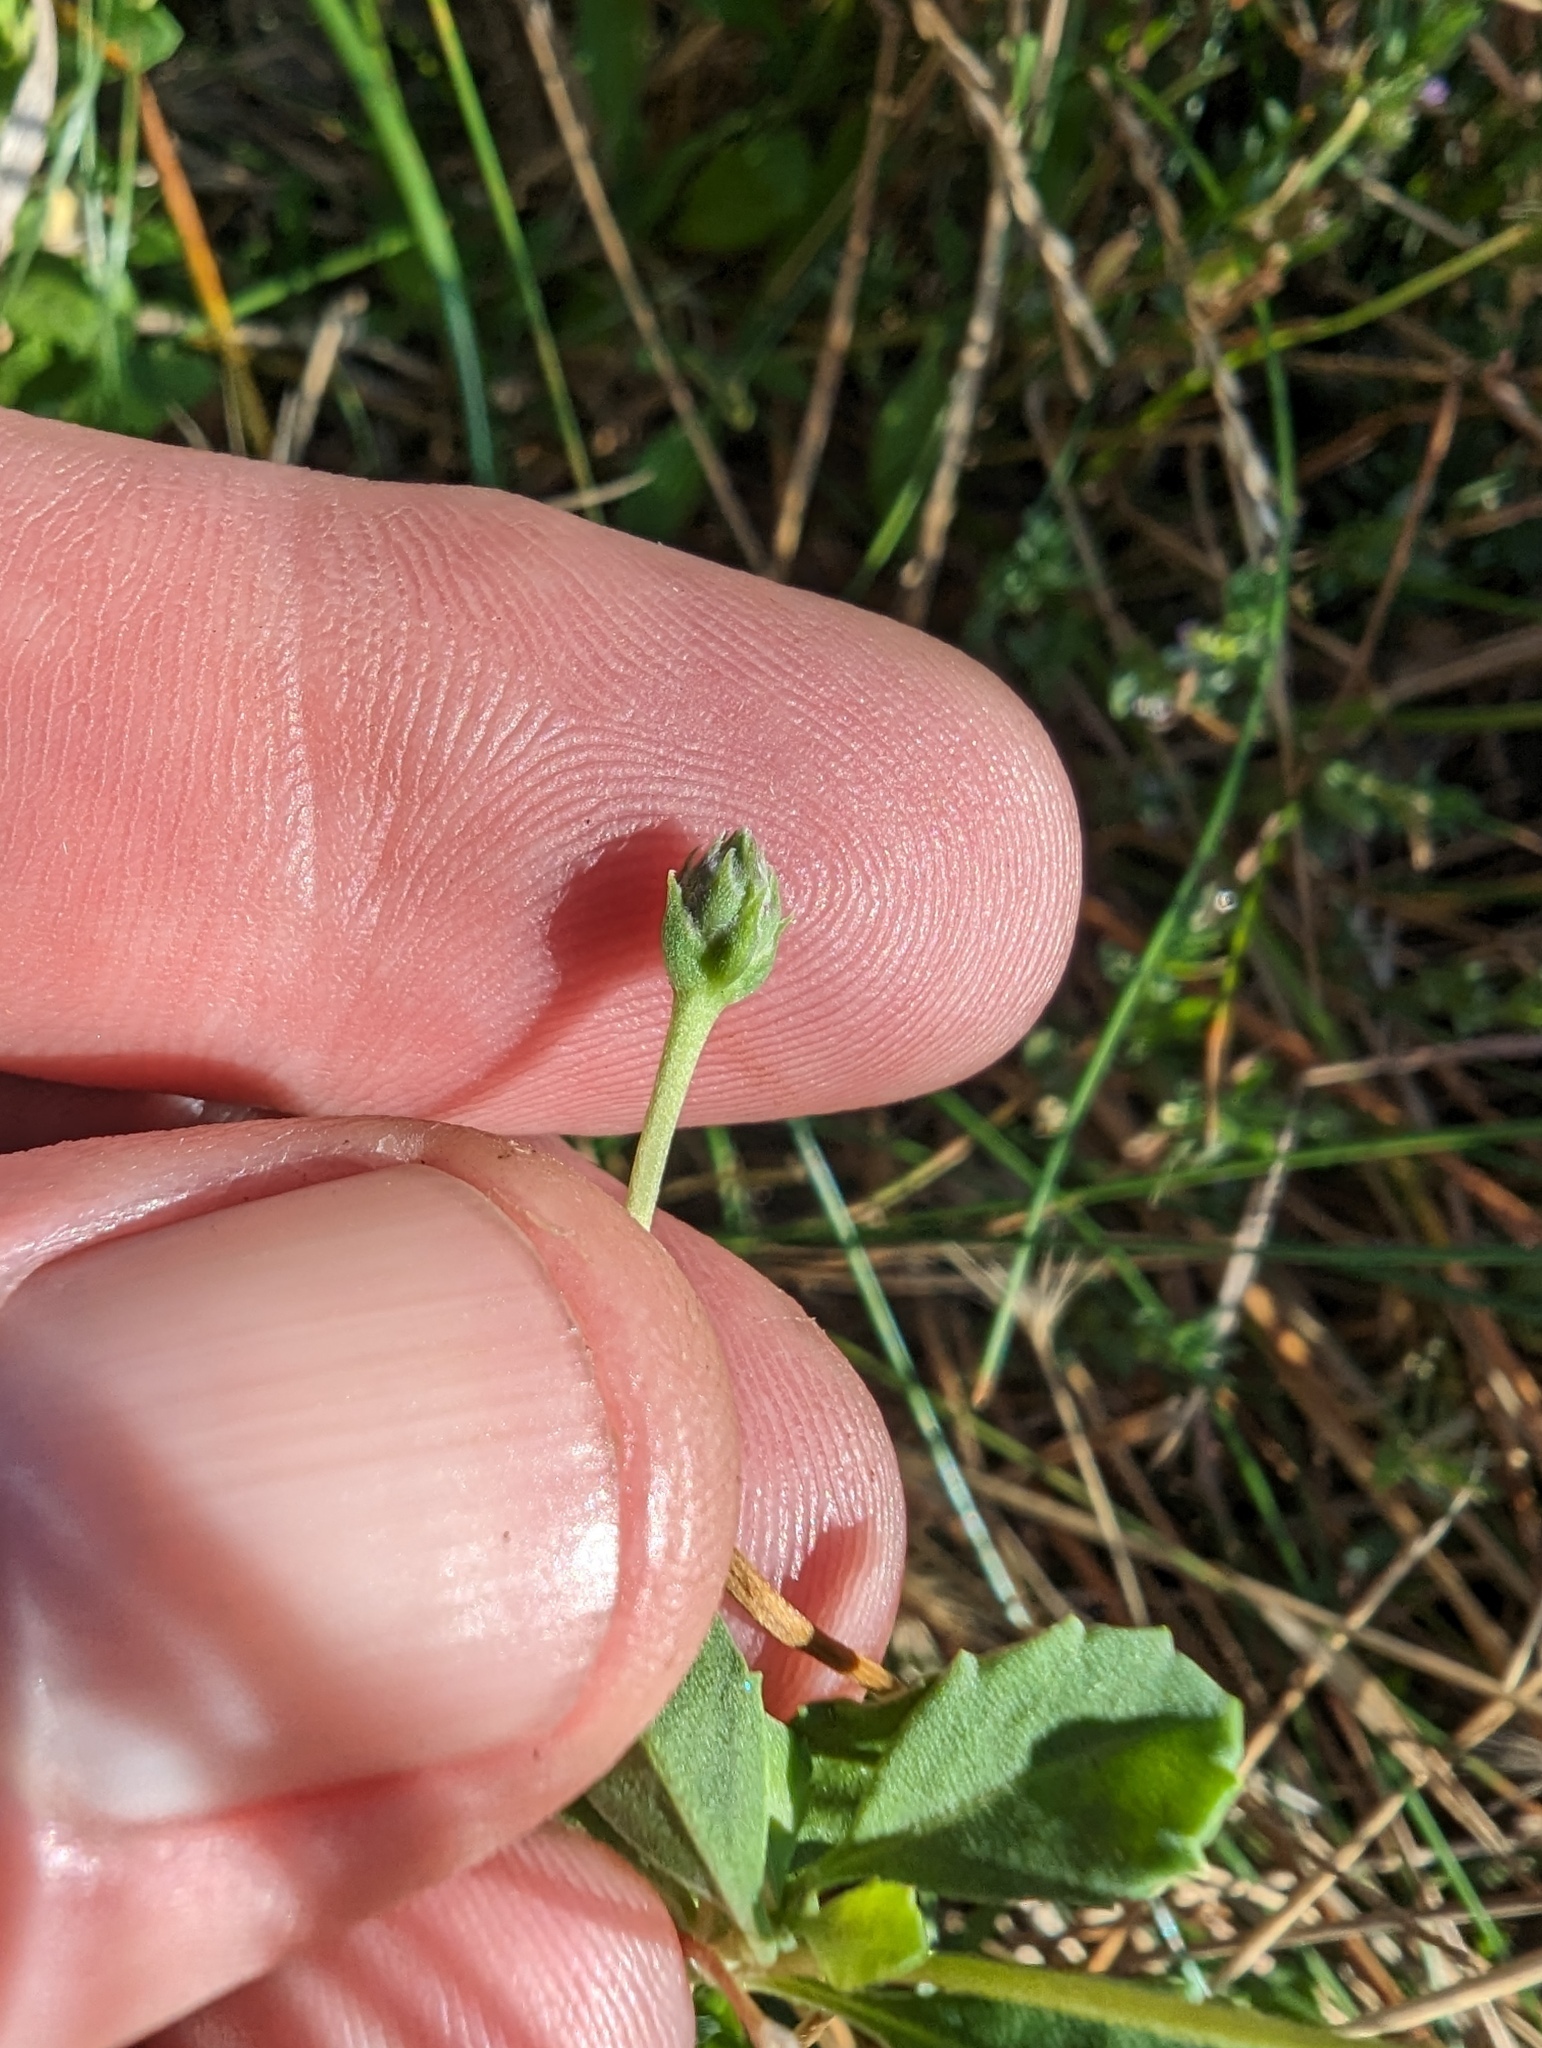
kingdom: Plantae
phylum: Tracheophyta
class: Magnoliopsida
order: Lamiales
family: Verbenaceae
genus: Phyla
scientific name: Phyla nodiflora
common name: Frogfruit
